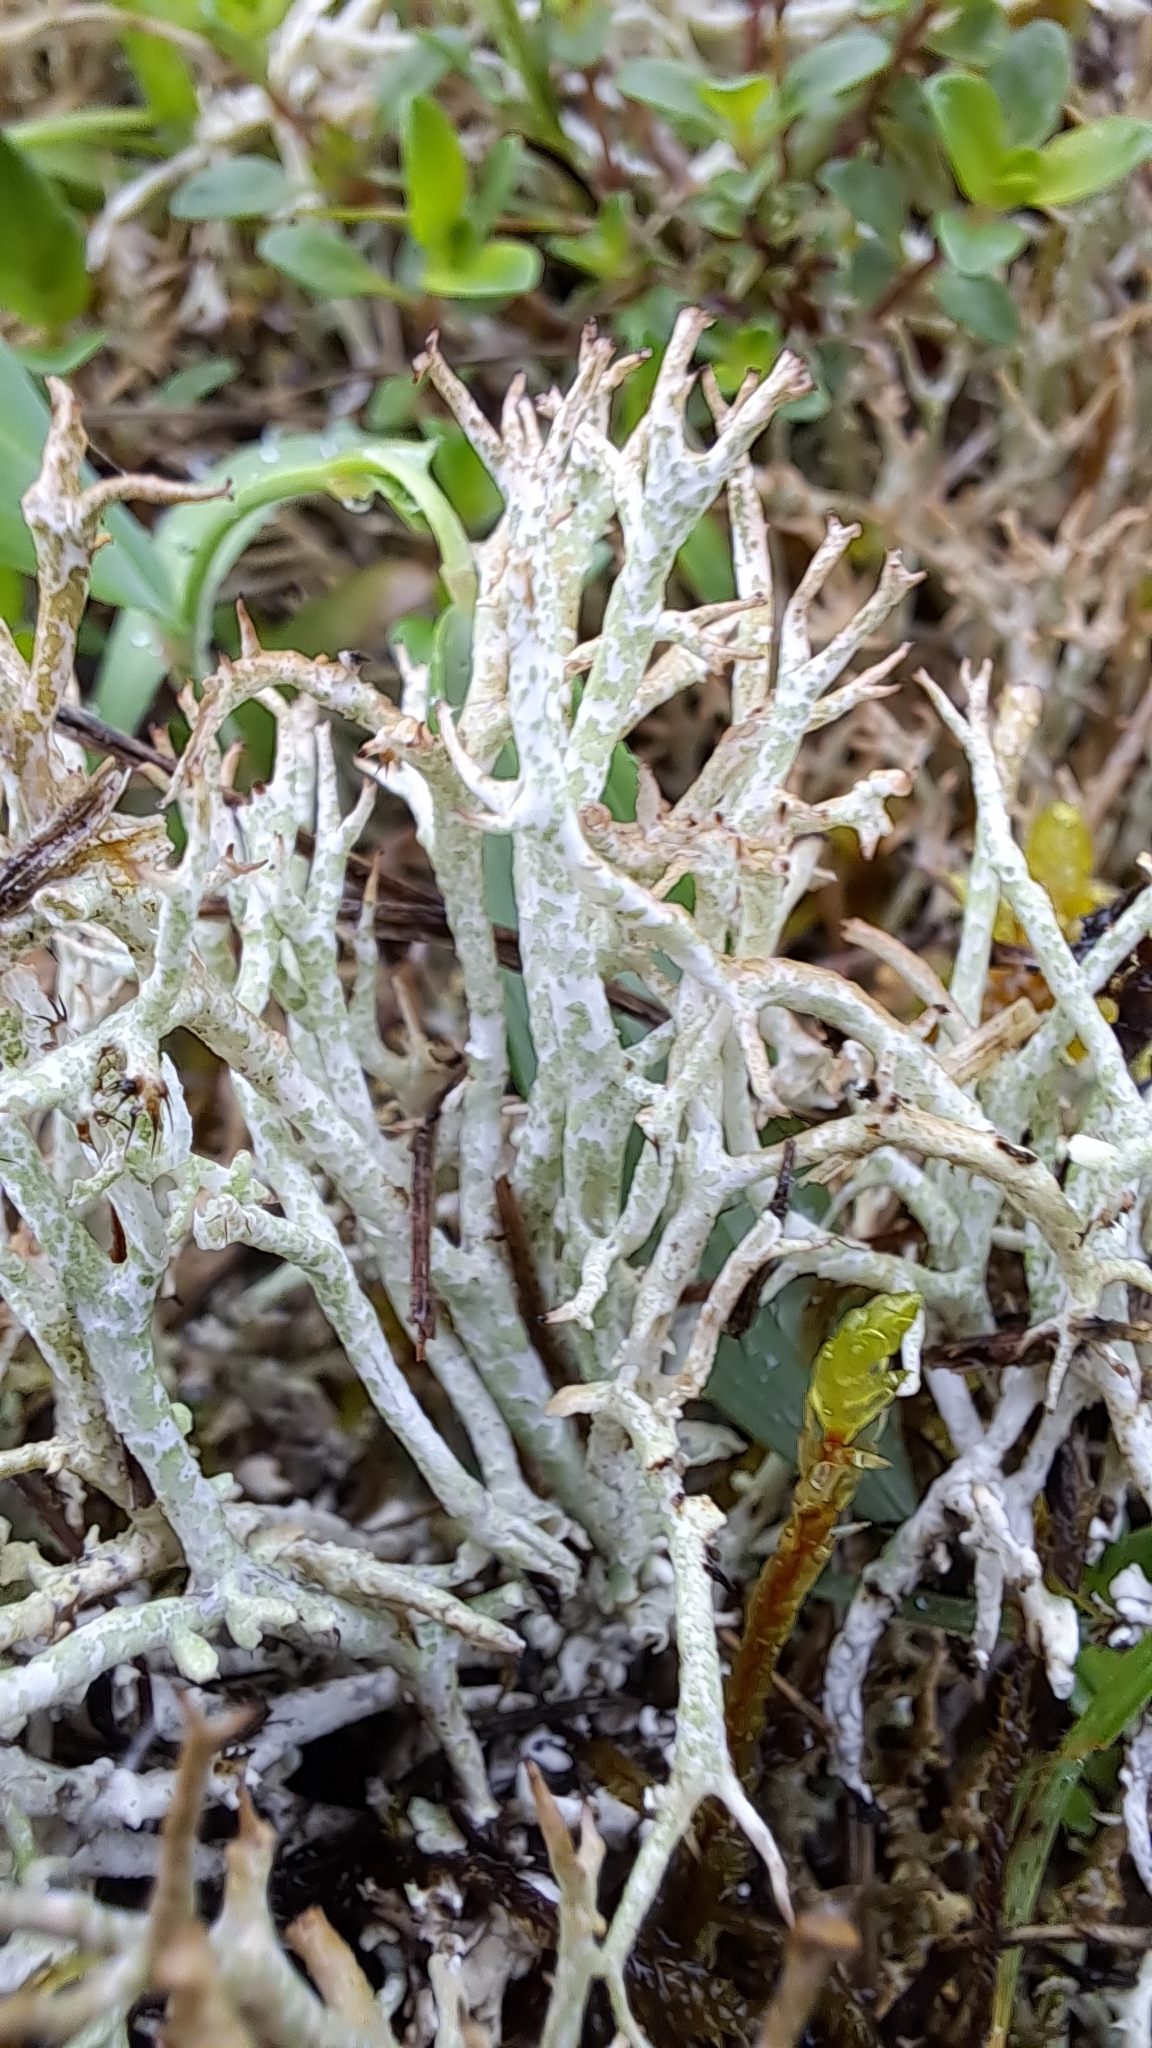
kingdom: Fungi
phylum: Ascomycota
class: Lecanoromycetes
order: Lecanorales
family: Cladoniaceae
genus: Cladonia
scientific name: Cladonia rangiformis
